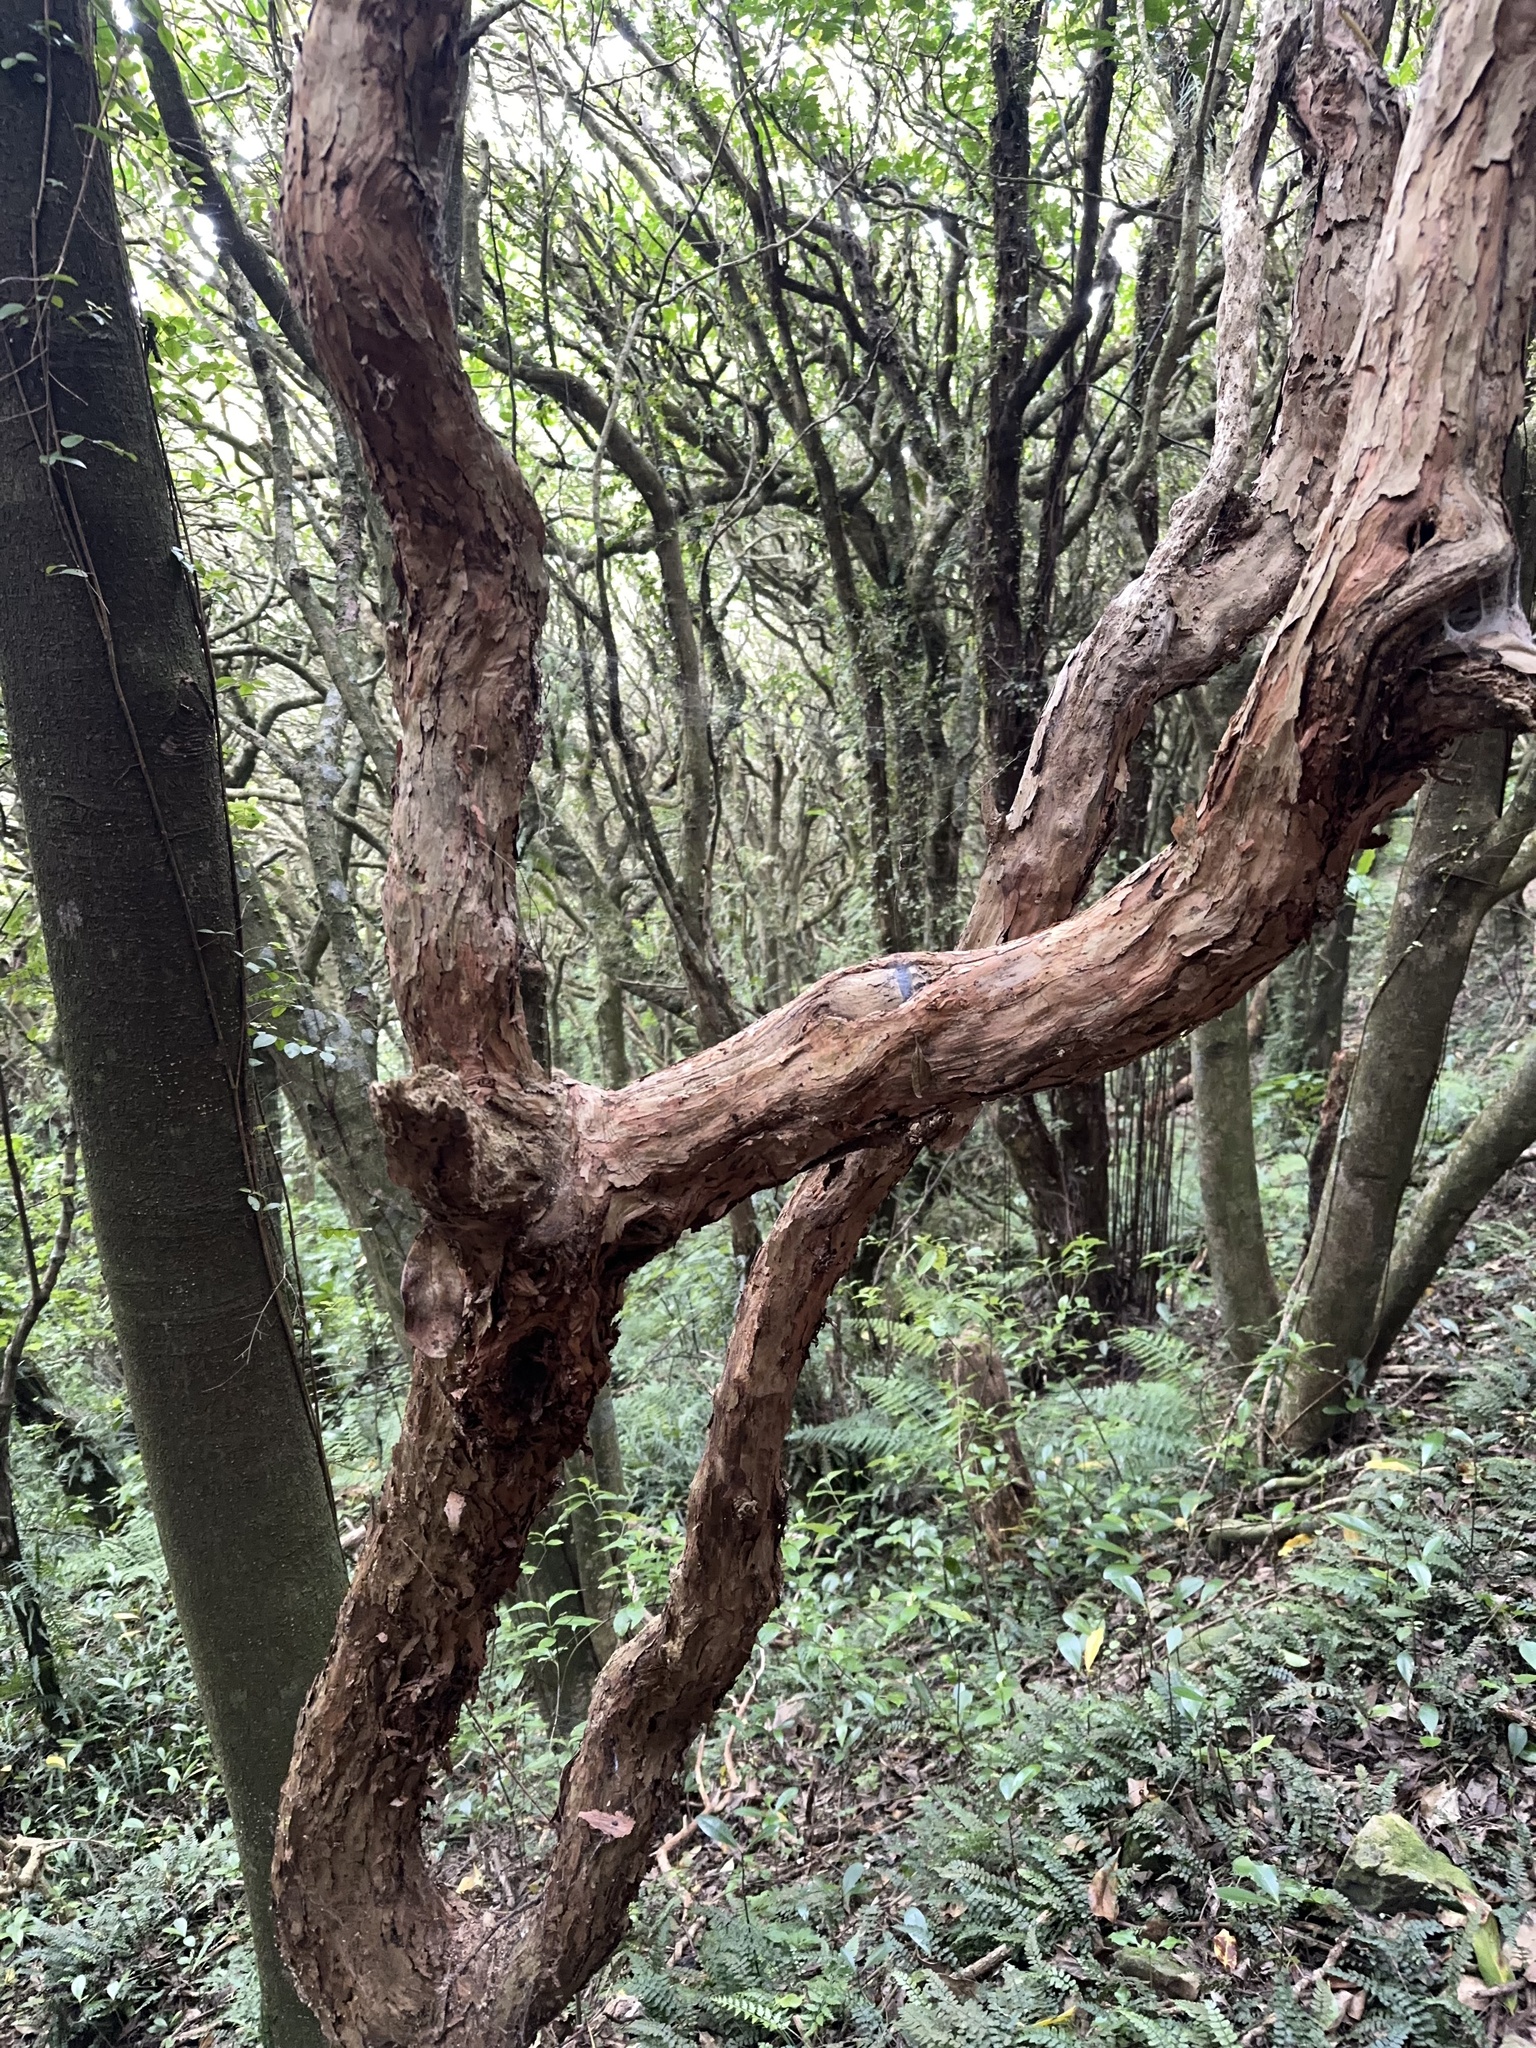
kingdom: Plantae
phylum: Tracheophyta
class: Magnoliopsida
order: Myrtales
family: Onagraceae
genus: Fuchsia
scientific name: Fuchsia excorticata
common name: Tree fuchsia
